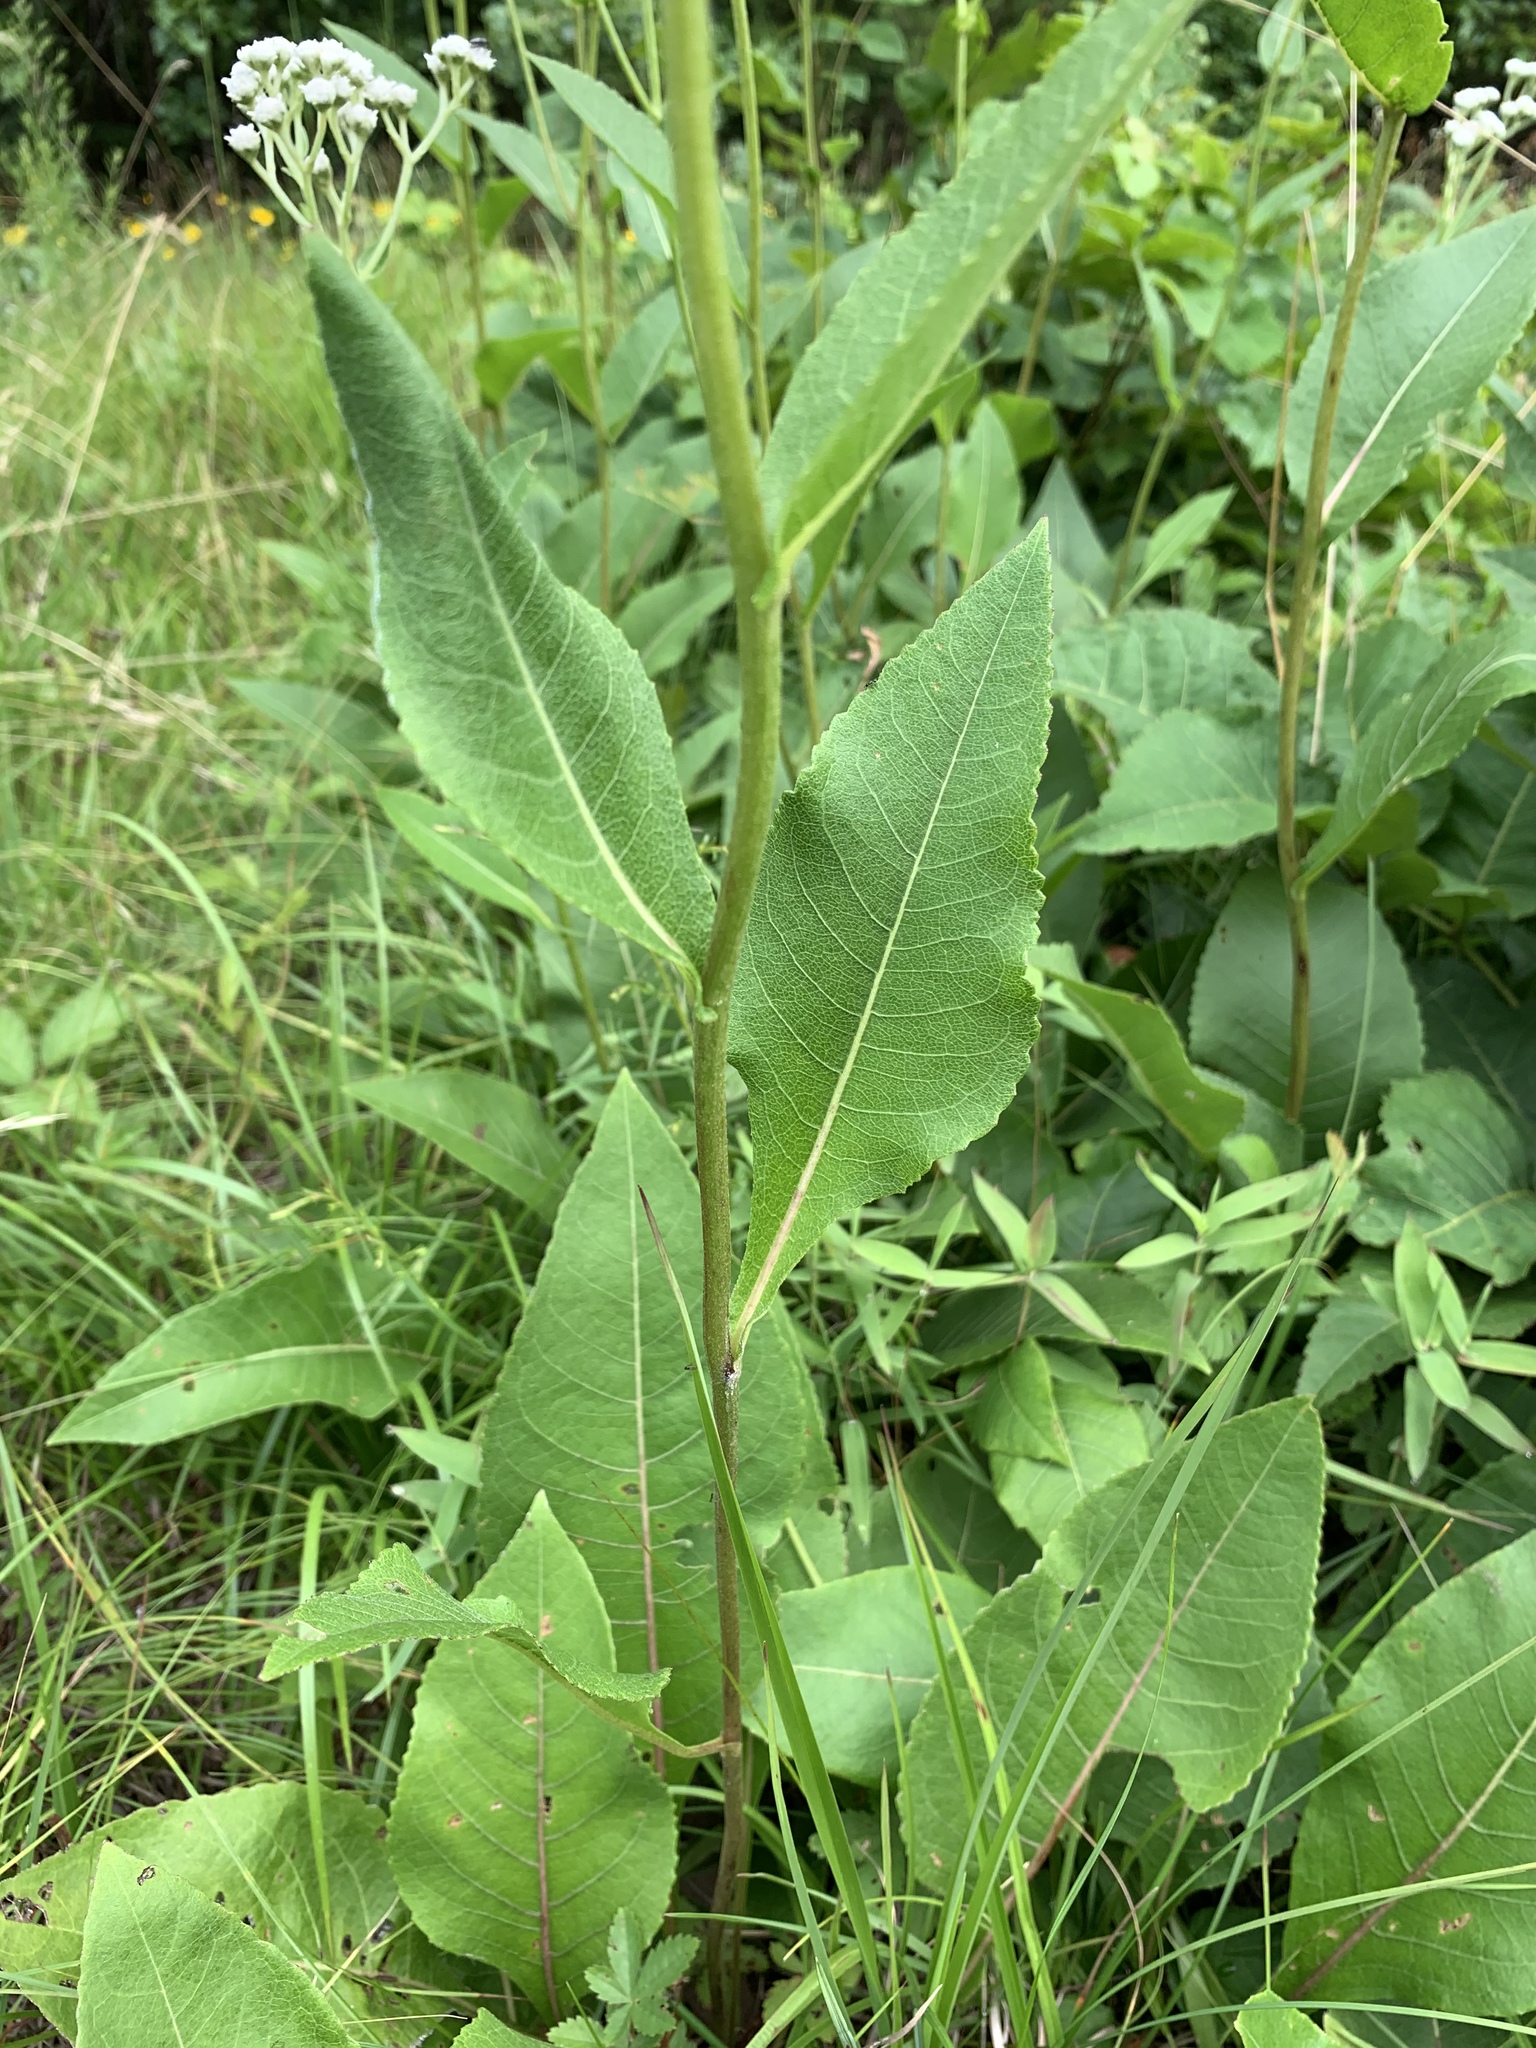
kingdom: Plantae
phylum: Tracheophyta
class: Magnoliopsida
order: Asterales
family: Asteraceae
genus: Parthenium
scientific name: Parthenium integrifolium
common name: American feverfew
